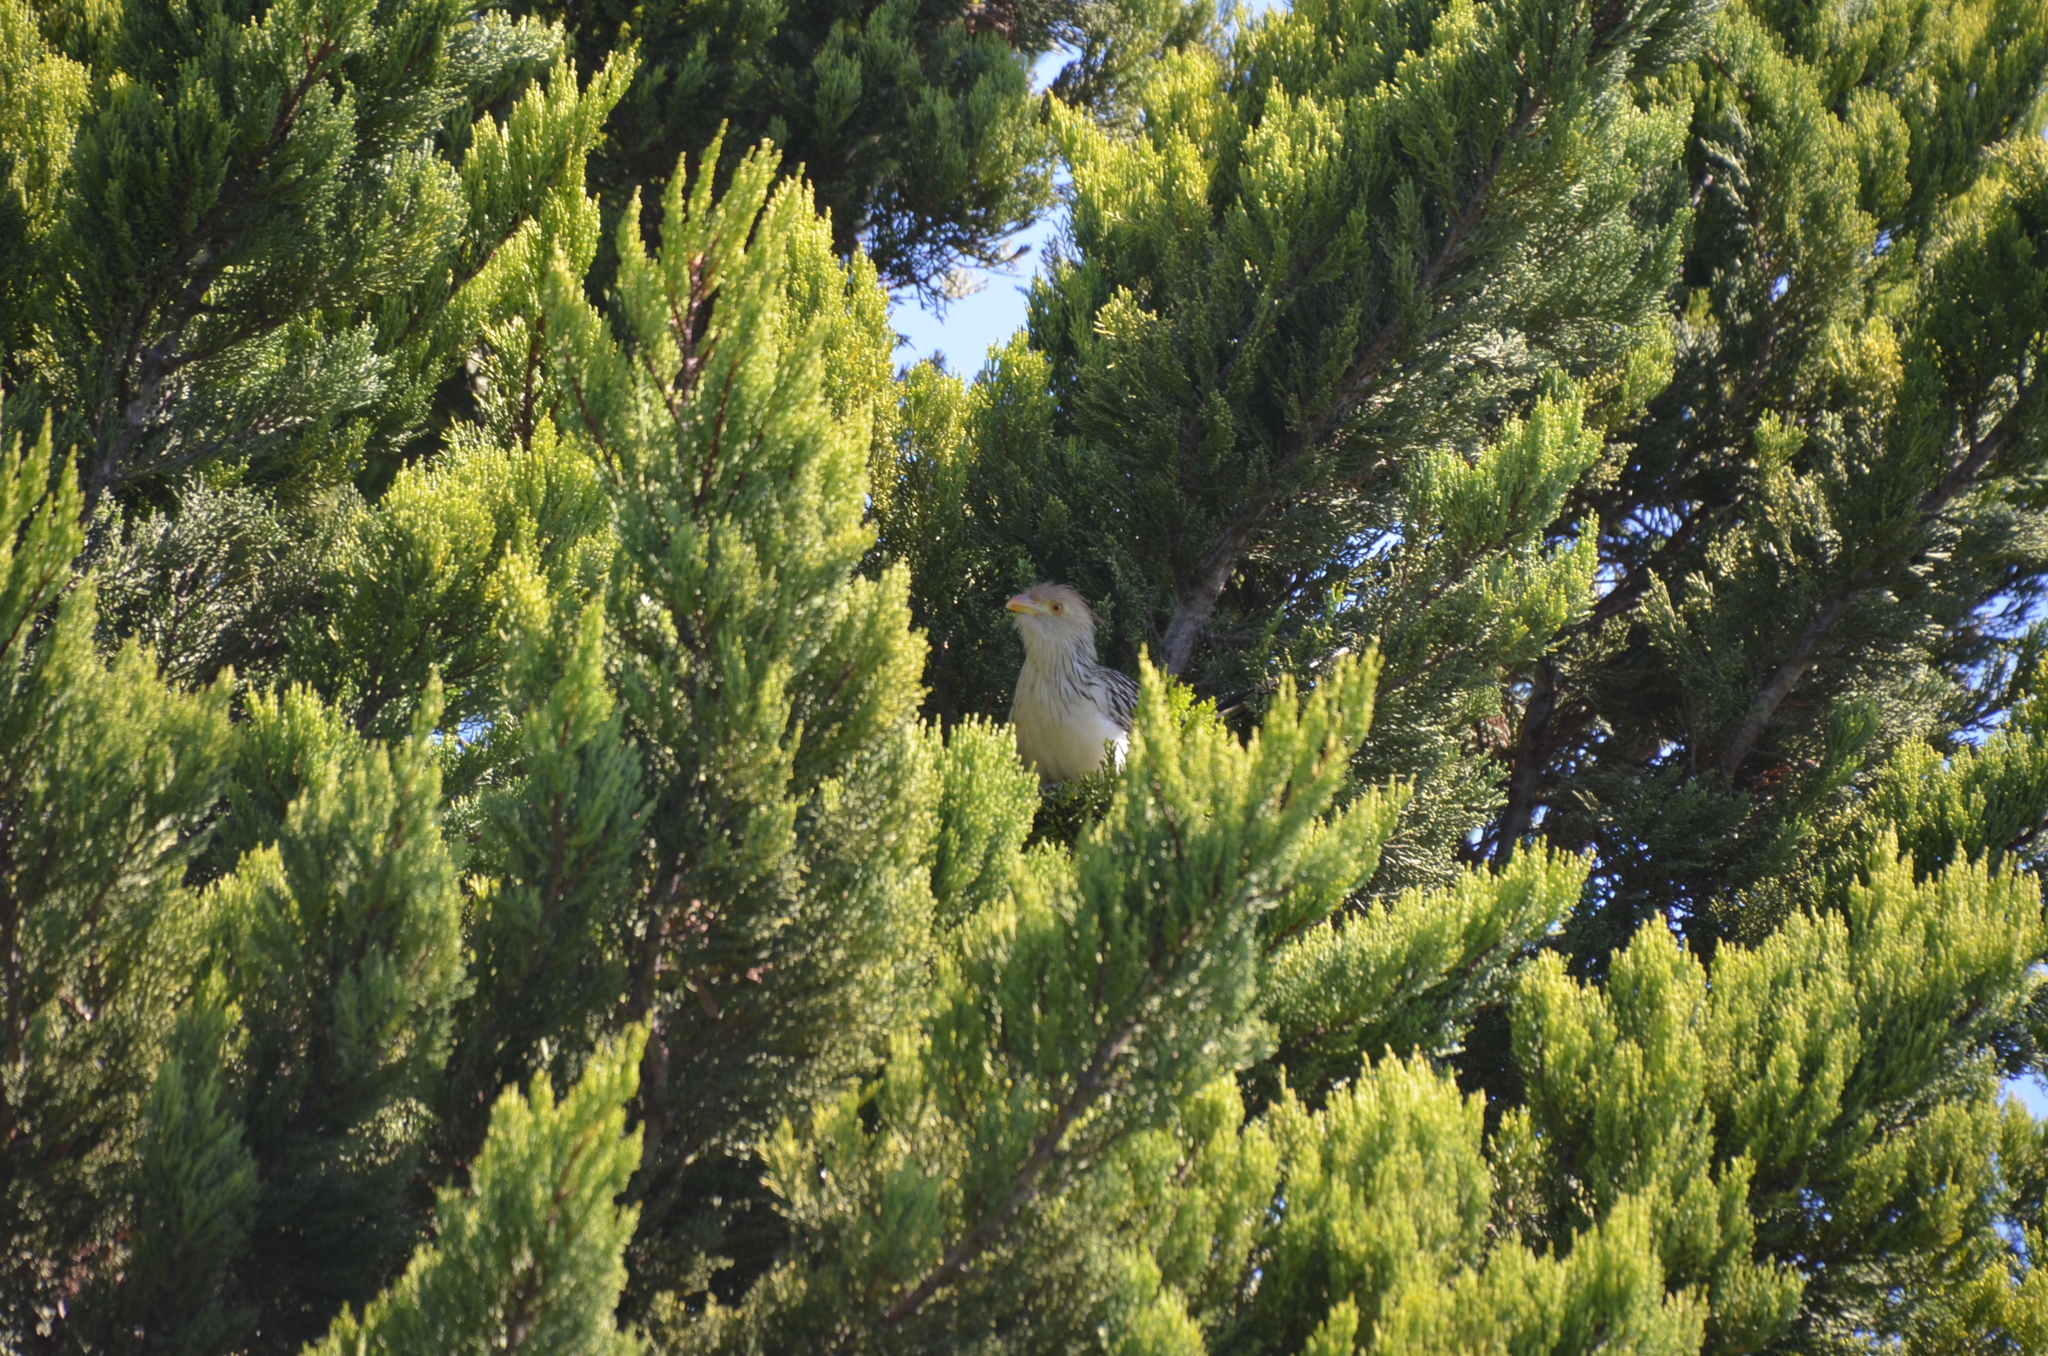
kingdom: Animalia
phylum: Chordata
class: Aves
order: Cuculiformes
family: Cuculidae
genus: Guira
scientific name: Guira guira
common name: Guira cuckoo
